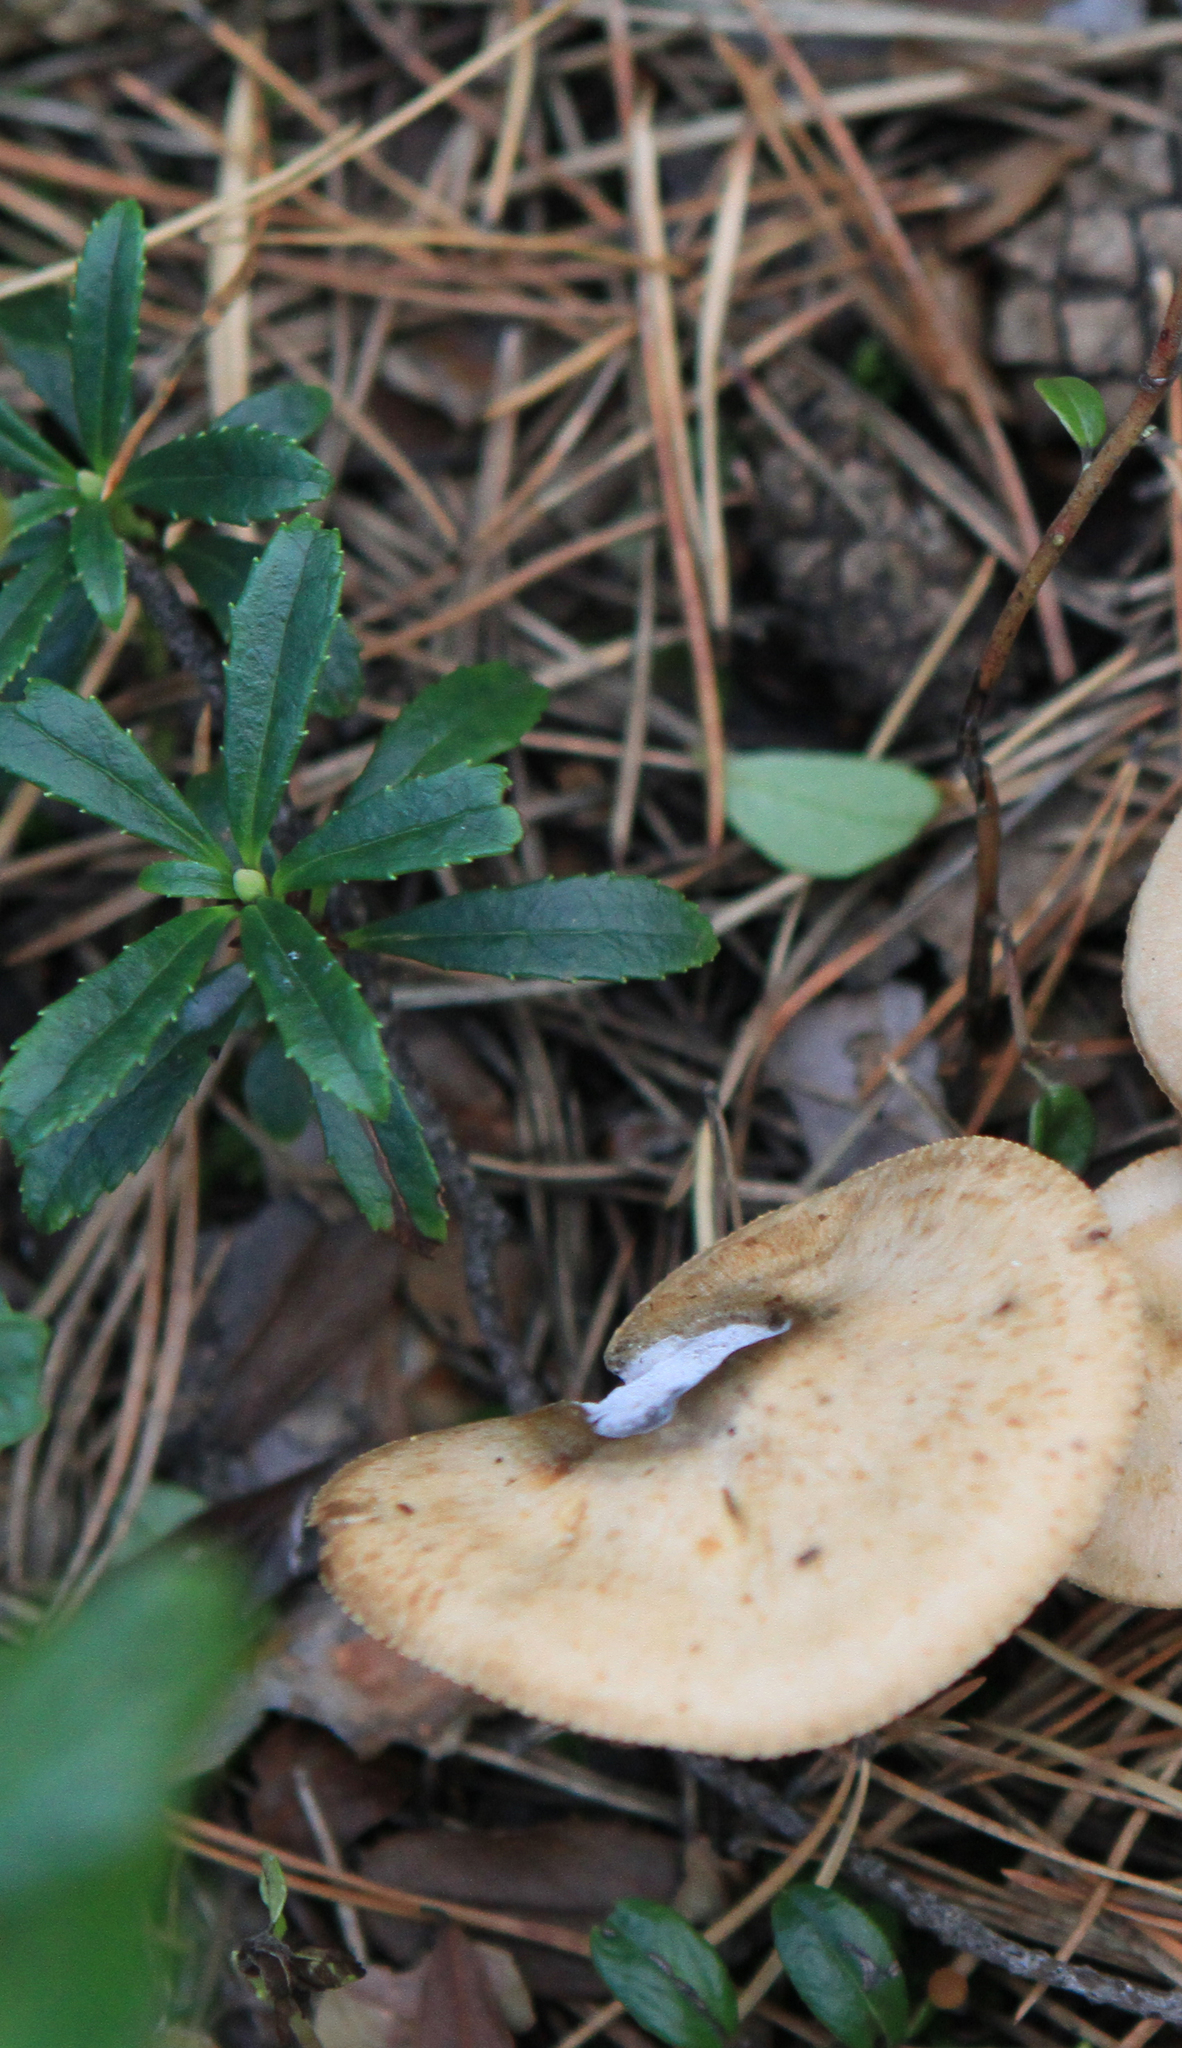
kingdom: Plantae
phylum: Tracheophyta
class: Magnoliopsida
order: Ericales
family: Ericaceae
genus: Chimaphila
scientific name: Chimaphila umbellata
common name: Pipsissewa
